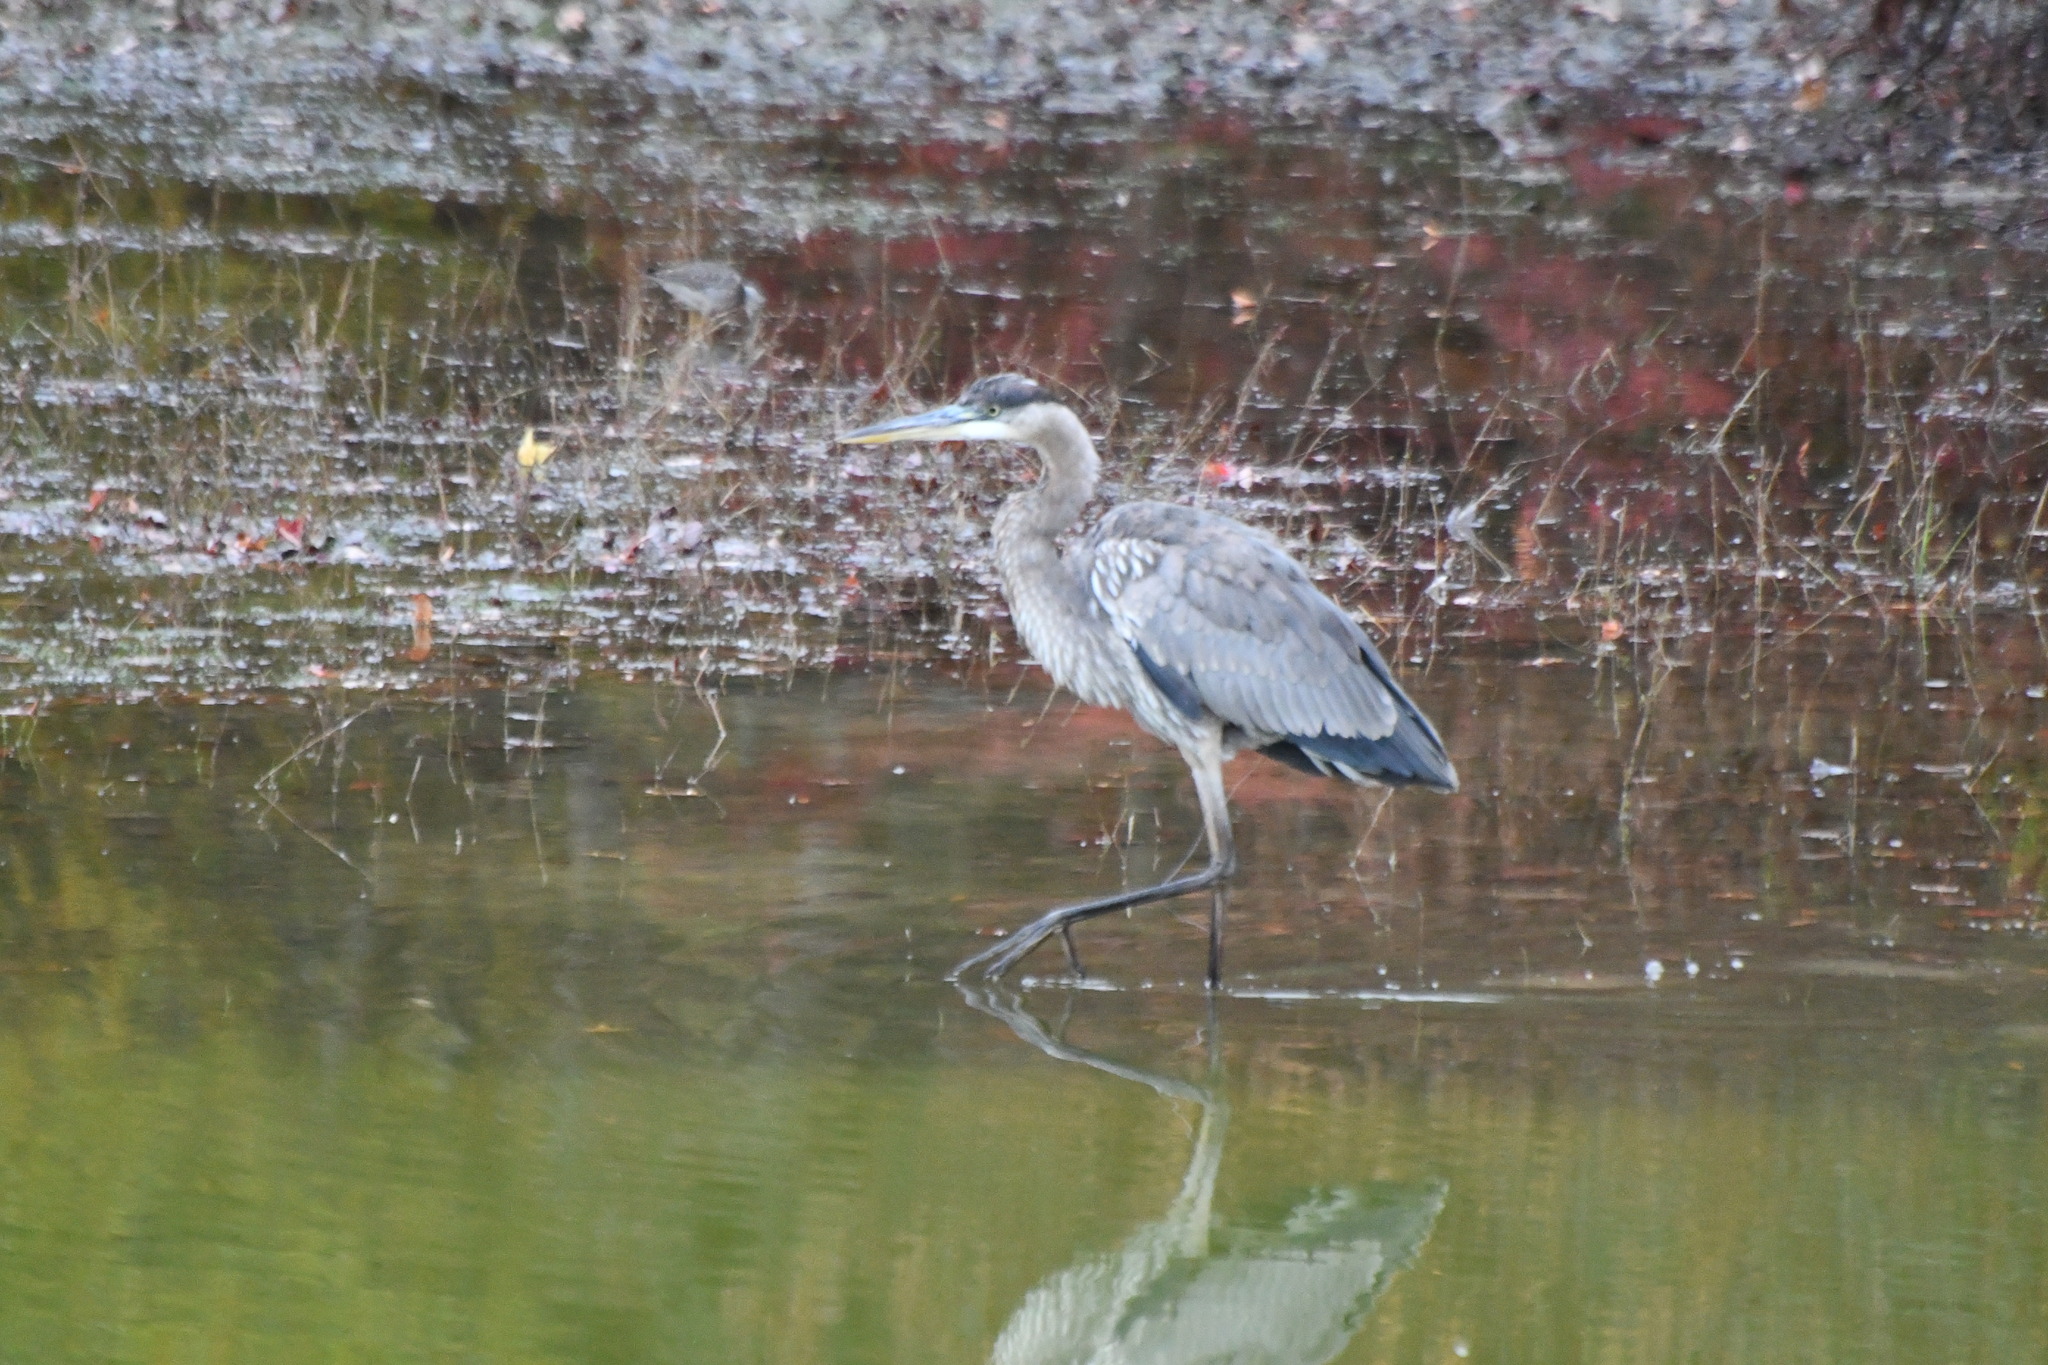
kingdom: Animalia
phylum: Chordata
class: Aves
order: Pelecaniformes
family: Ardeidae
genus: Ardea
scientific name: Ardea herodias
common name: Great blue heron
